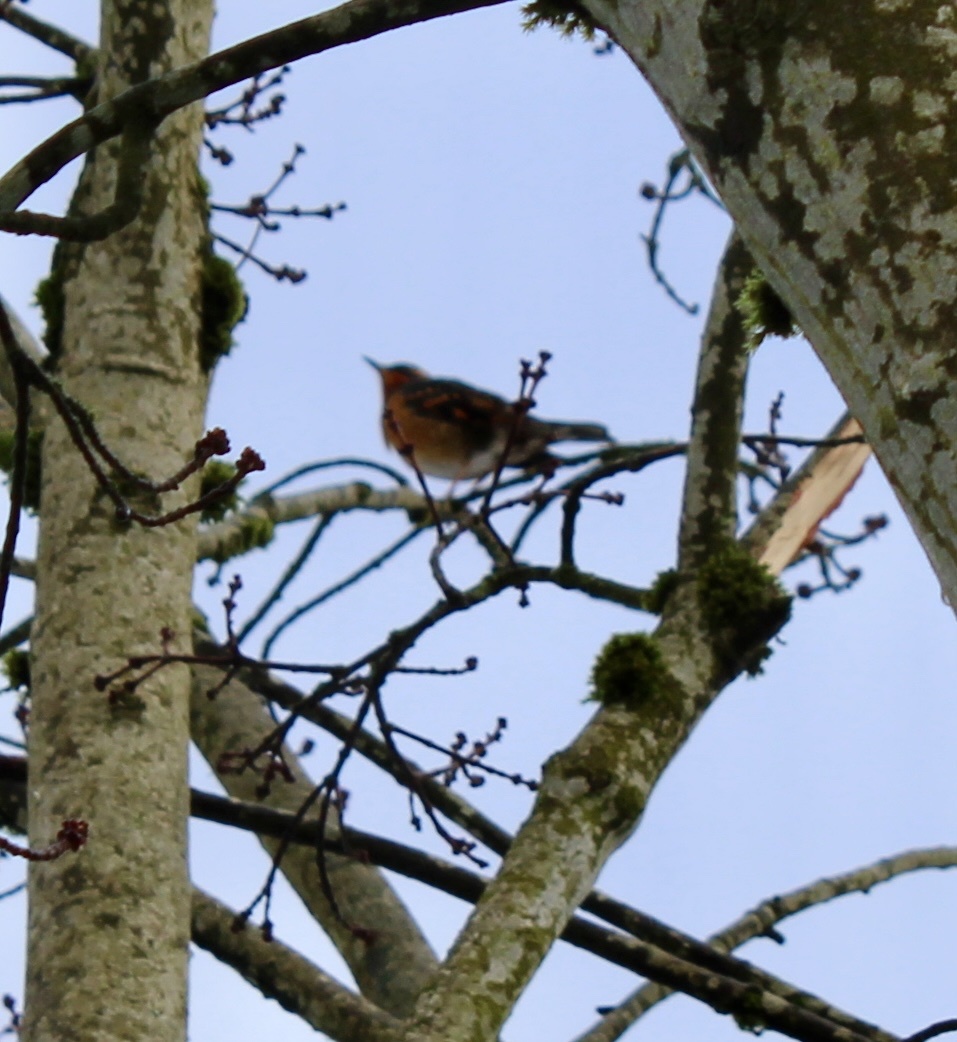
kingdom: Animalia
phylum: Chordata
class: Aves
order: Passeriformes
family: Turdidae
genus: Ixoreus
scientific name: Ixoreus naevius
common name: Varied thrush
